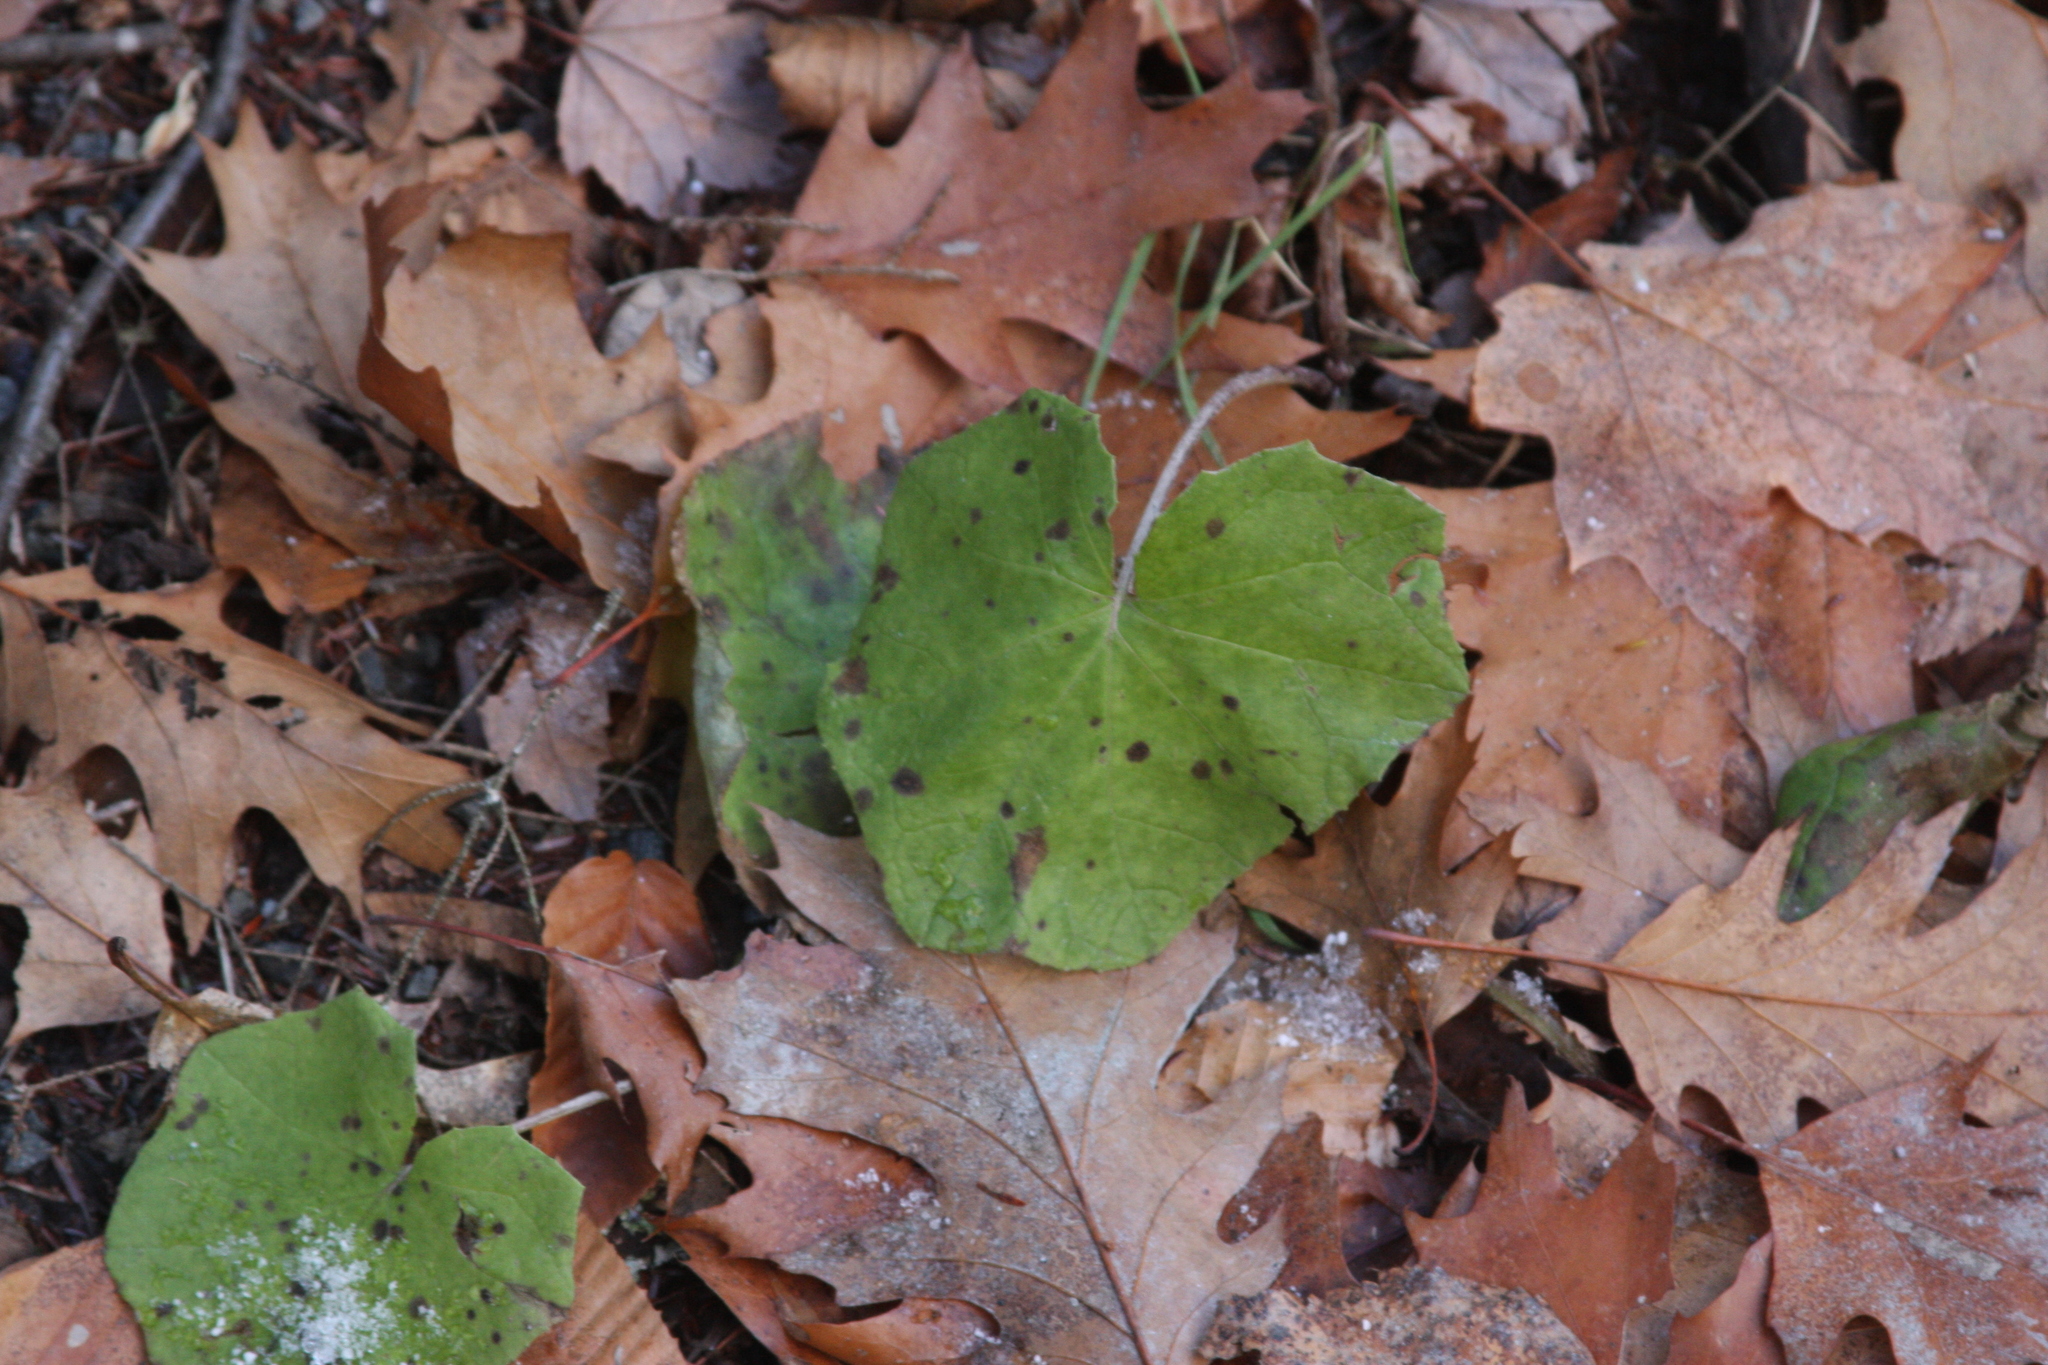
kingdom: Plantae
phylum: Tracheophyta
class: Magnoliopsida
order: Asterales
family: Asteraceae
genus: Tussilago
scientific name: Tussilago farfara
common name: Coltsfoot
